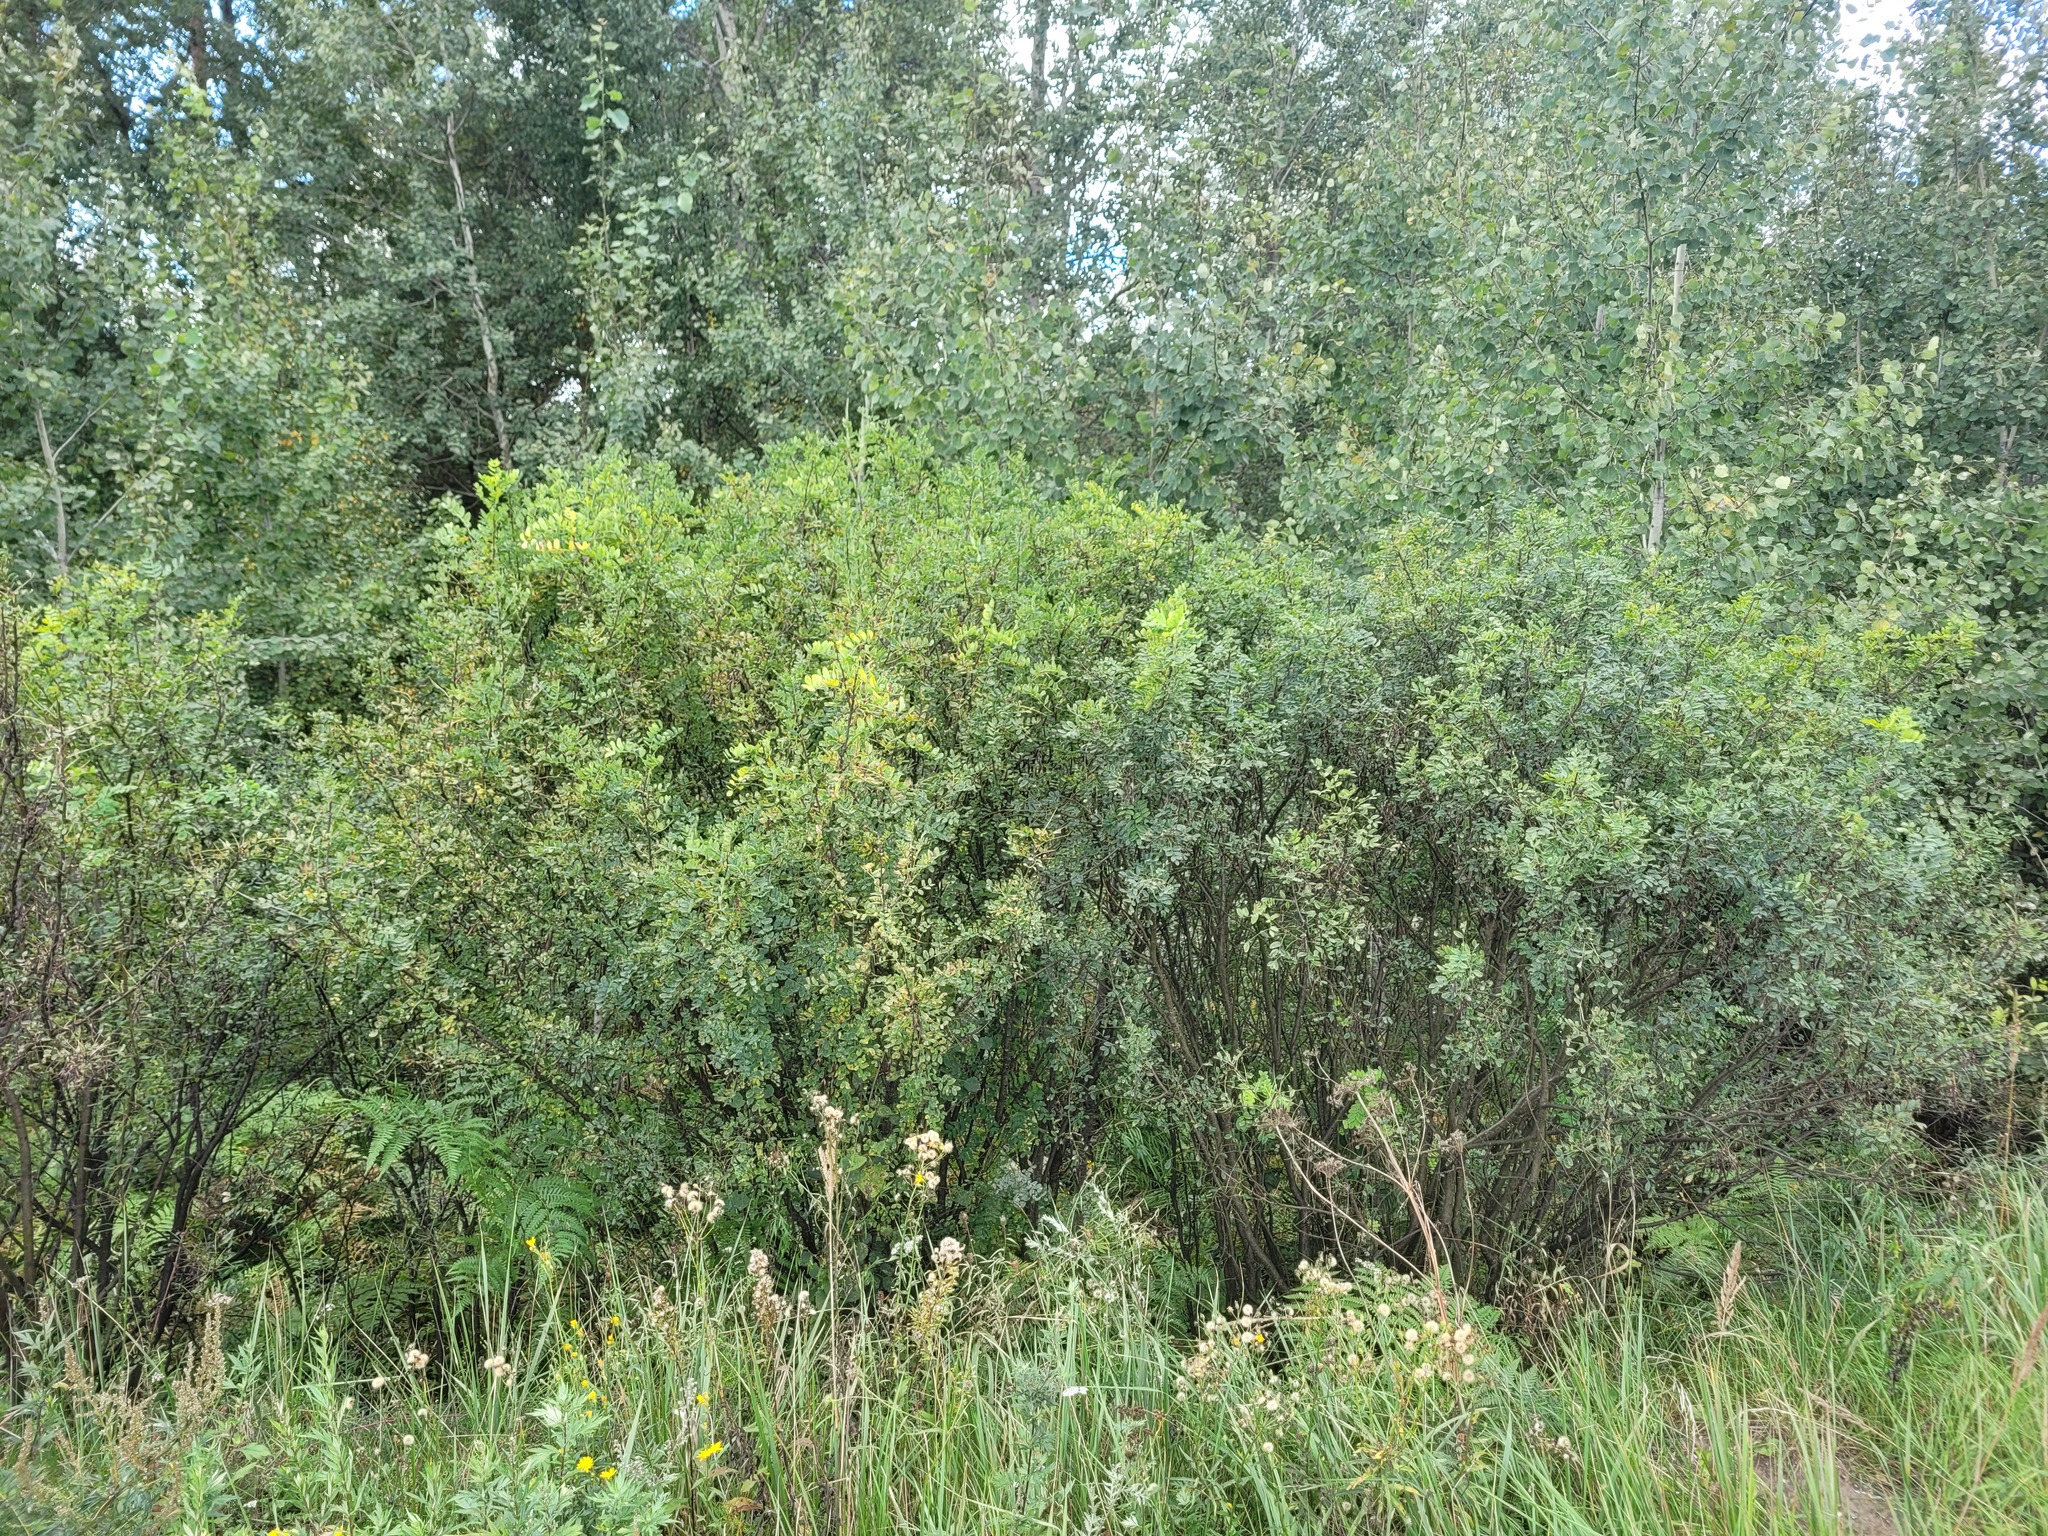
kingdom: Plantae
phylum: Tracheophyta
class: Magnoliopsida
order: Fabales
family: Fabaceae
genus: Caragana
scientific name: Caragana arborescens
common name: Siberian peashrub
